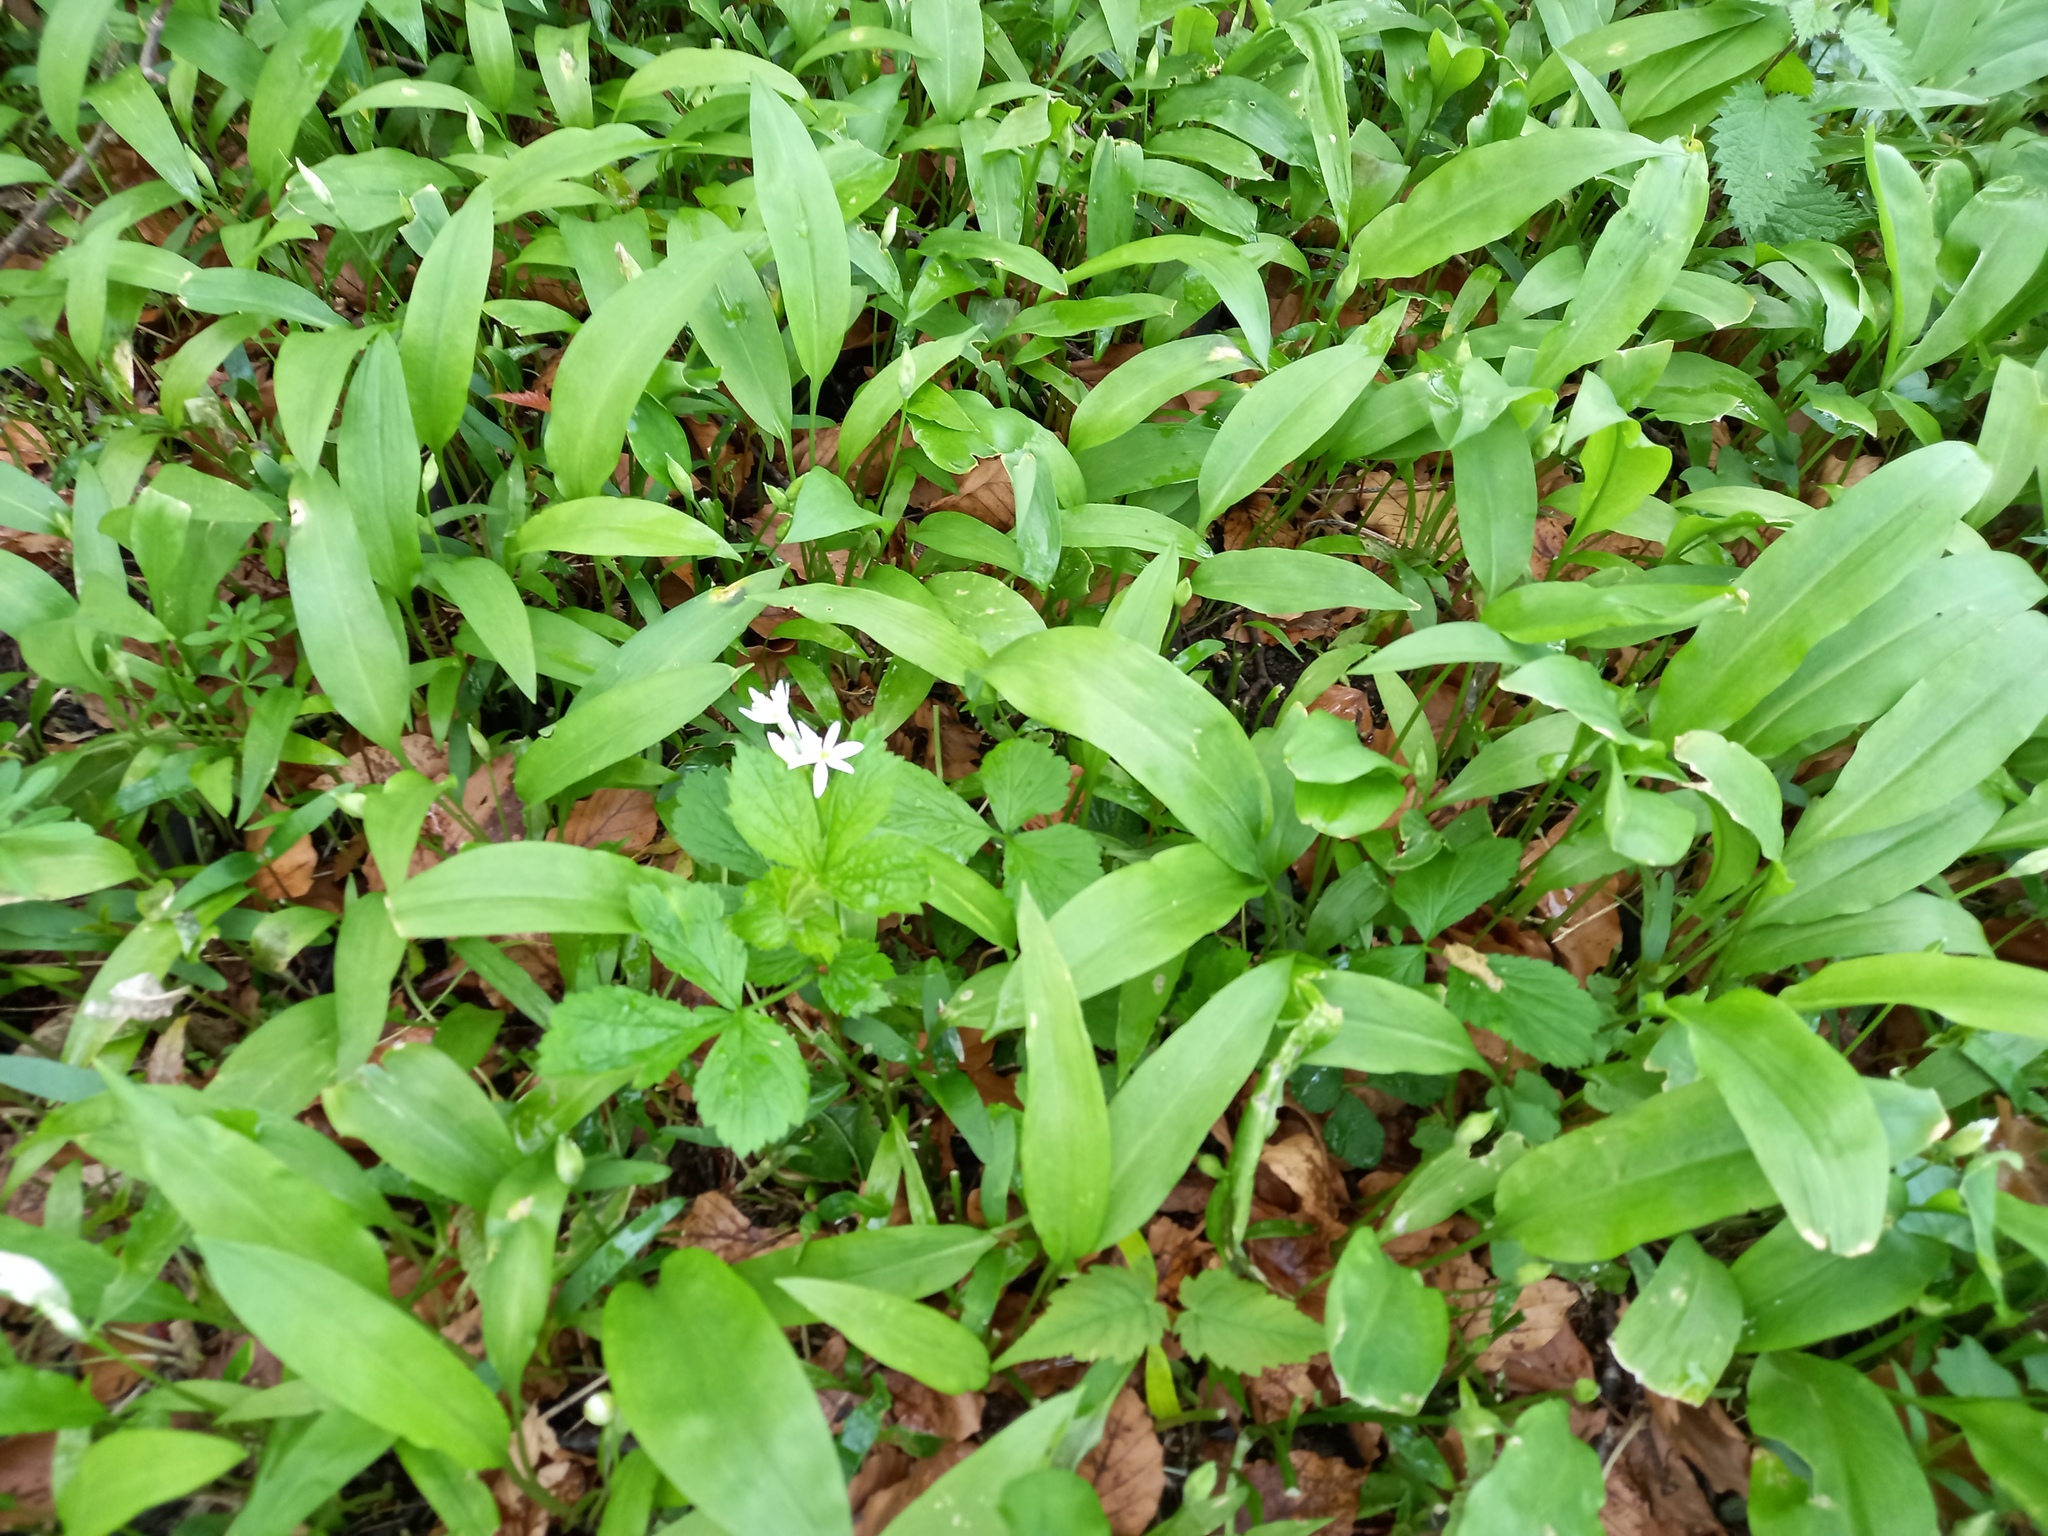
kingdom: Plantae
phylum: Tracheophyta
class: Liliopsida
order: Asparagales
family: Amaryllidaceae
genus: Allium
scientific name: Allium ursinum
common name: Ramsons
